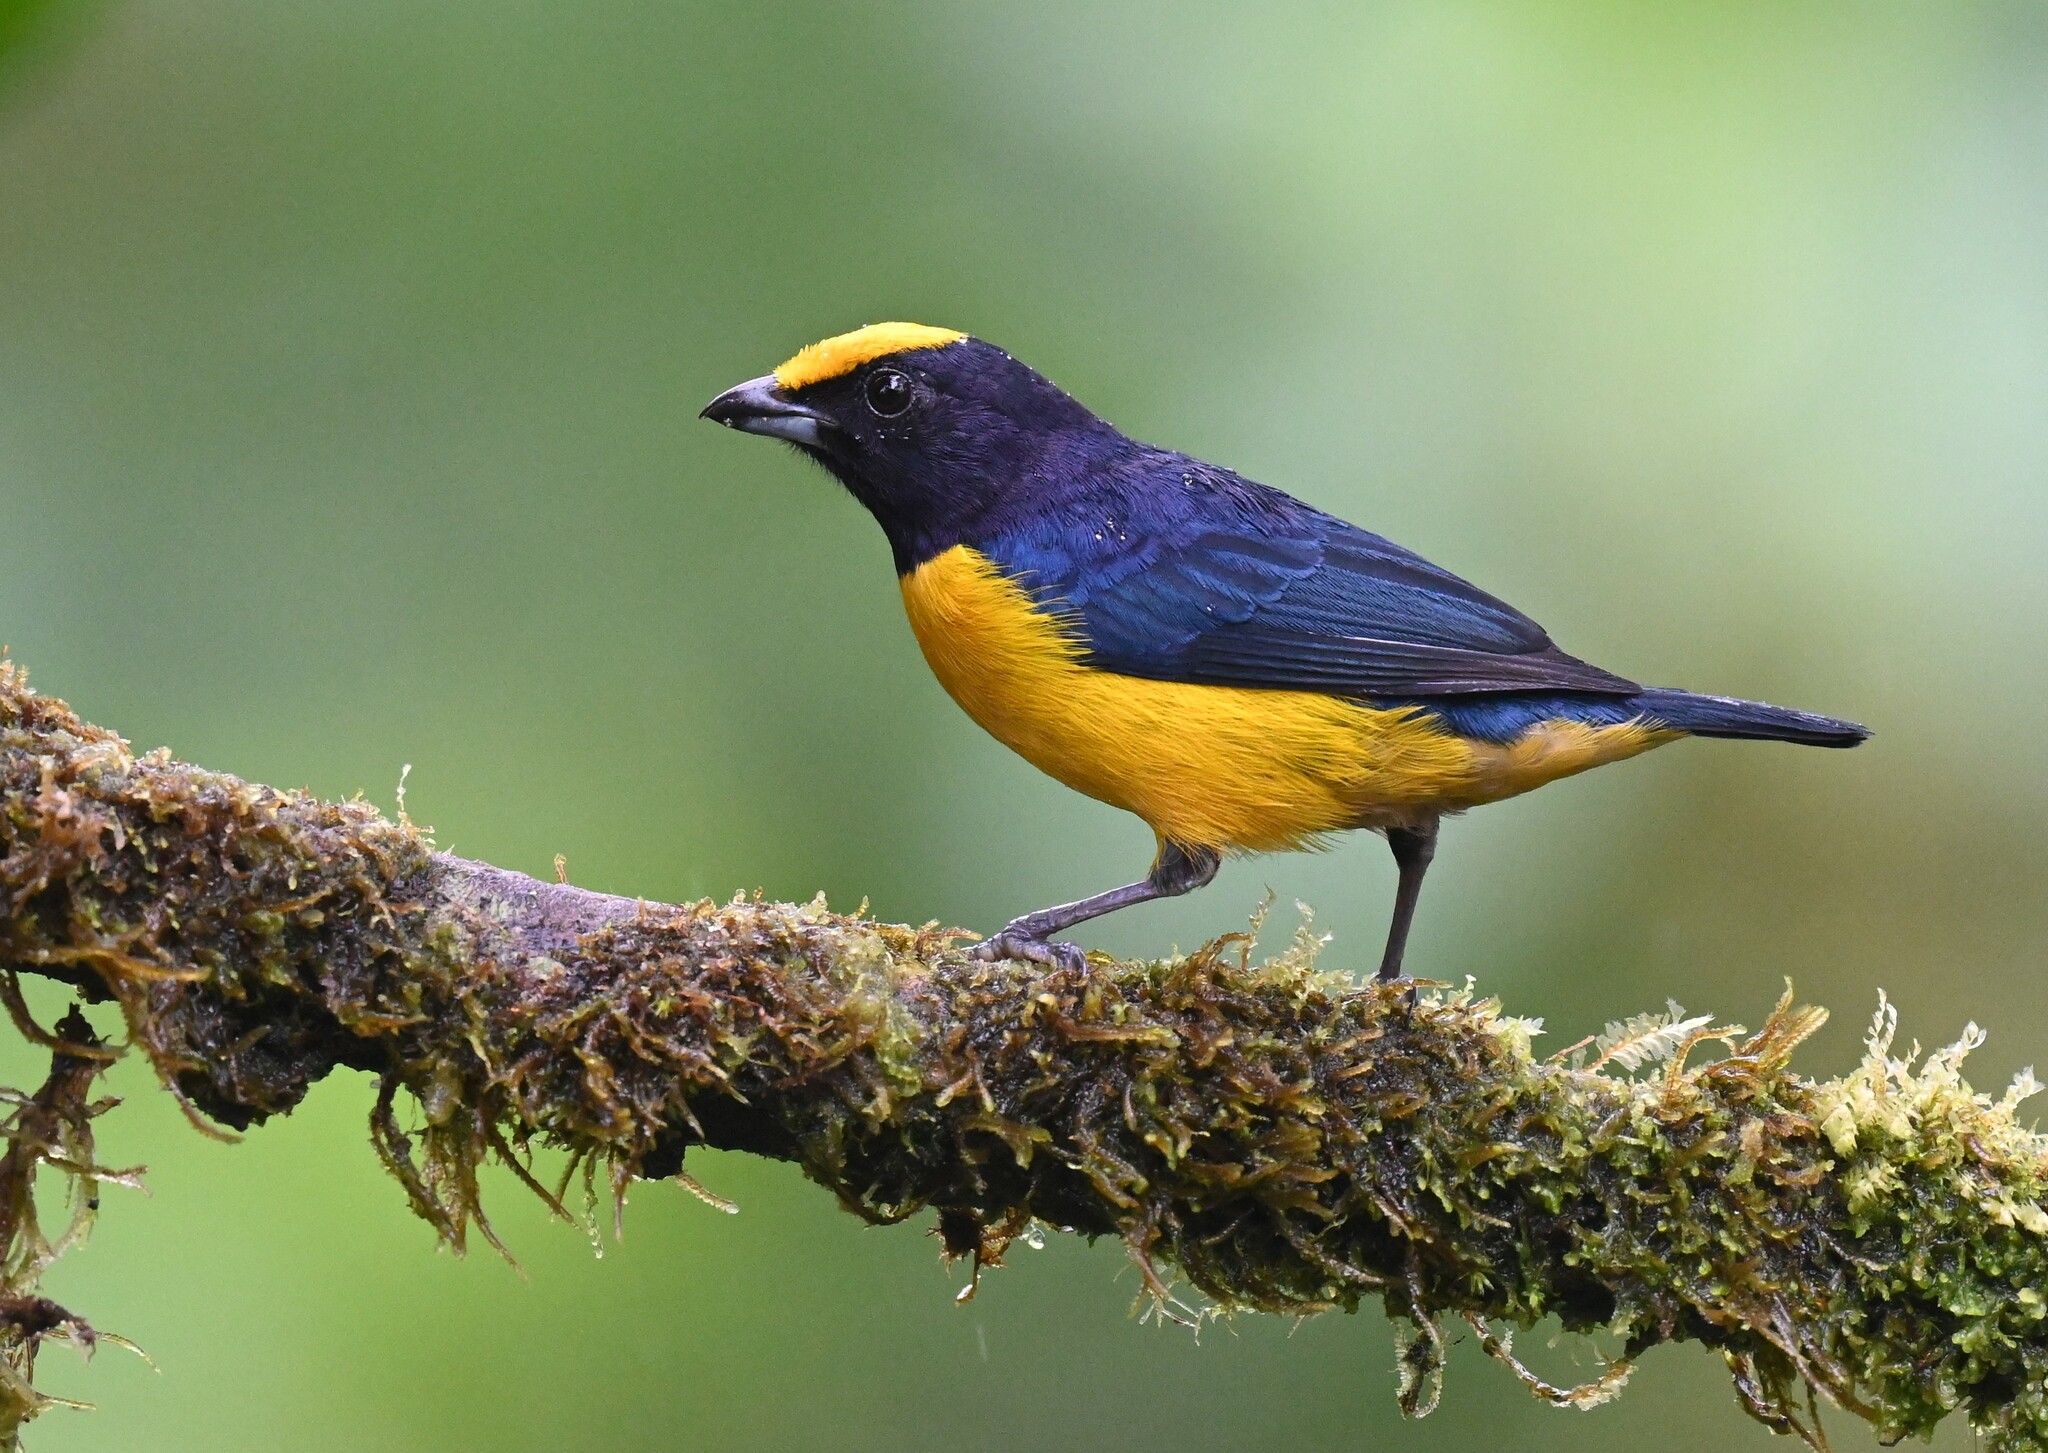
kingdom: Animalia
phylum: Chordata
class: Aves
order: Passeriformes
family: Fringillidae
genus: Euphonia
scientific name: Euphonia xanthogaster
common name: Orange-bellied euphonia
